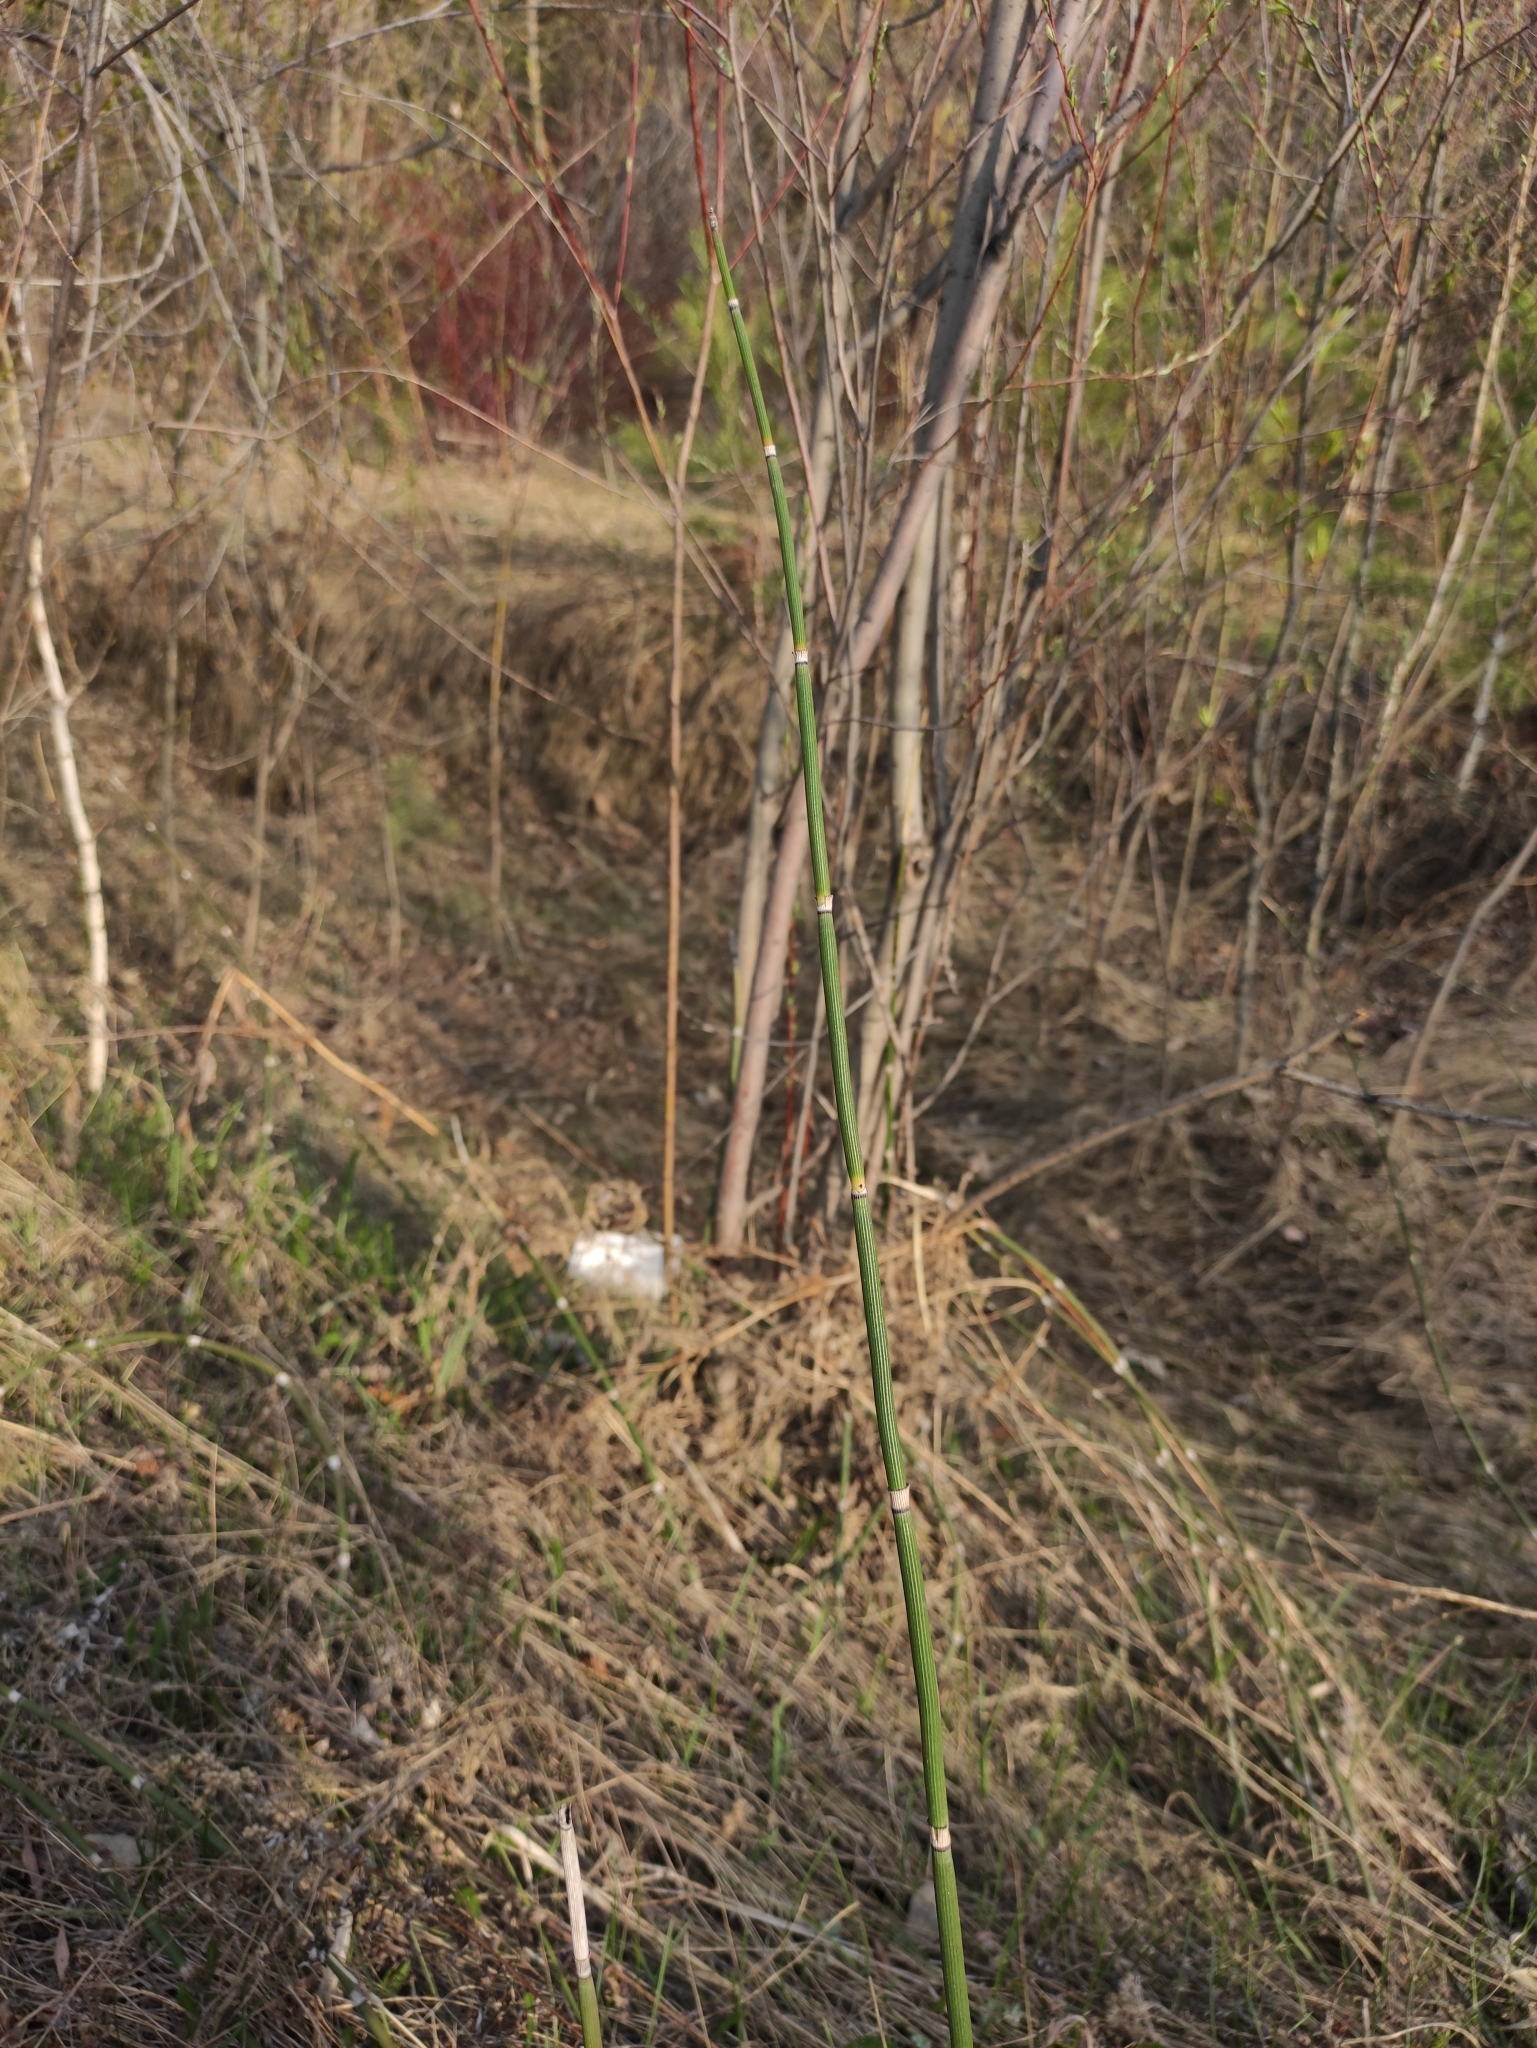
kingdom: Plantae
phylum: Tracheophyta
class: Polypodiopsida
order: Equisetales
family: Equisetaceae
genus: Equisetum
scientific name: Equisetum hyemale
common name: Rough horsetail
